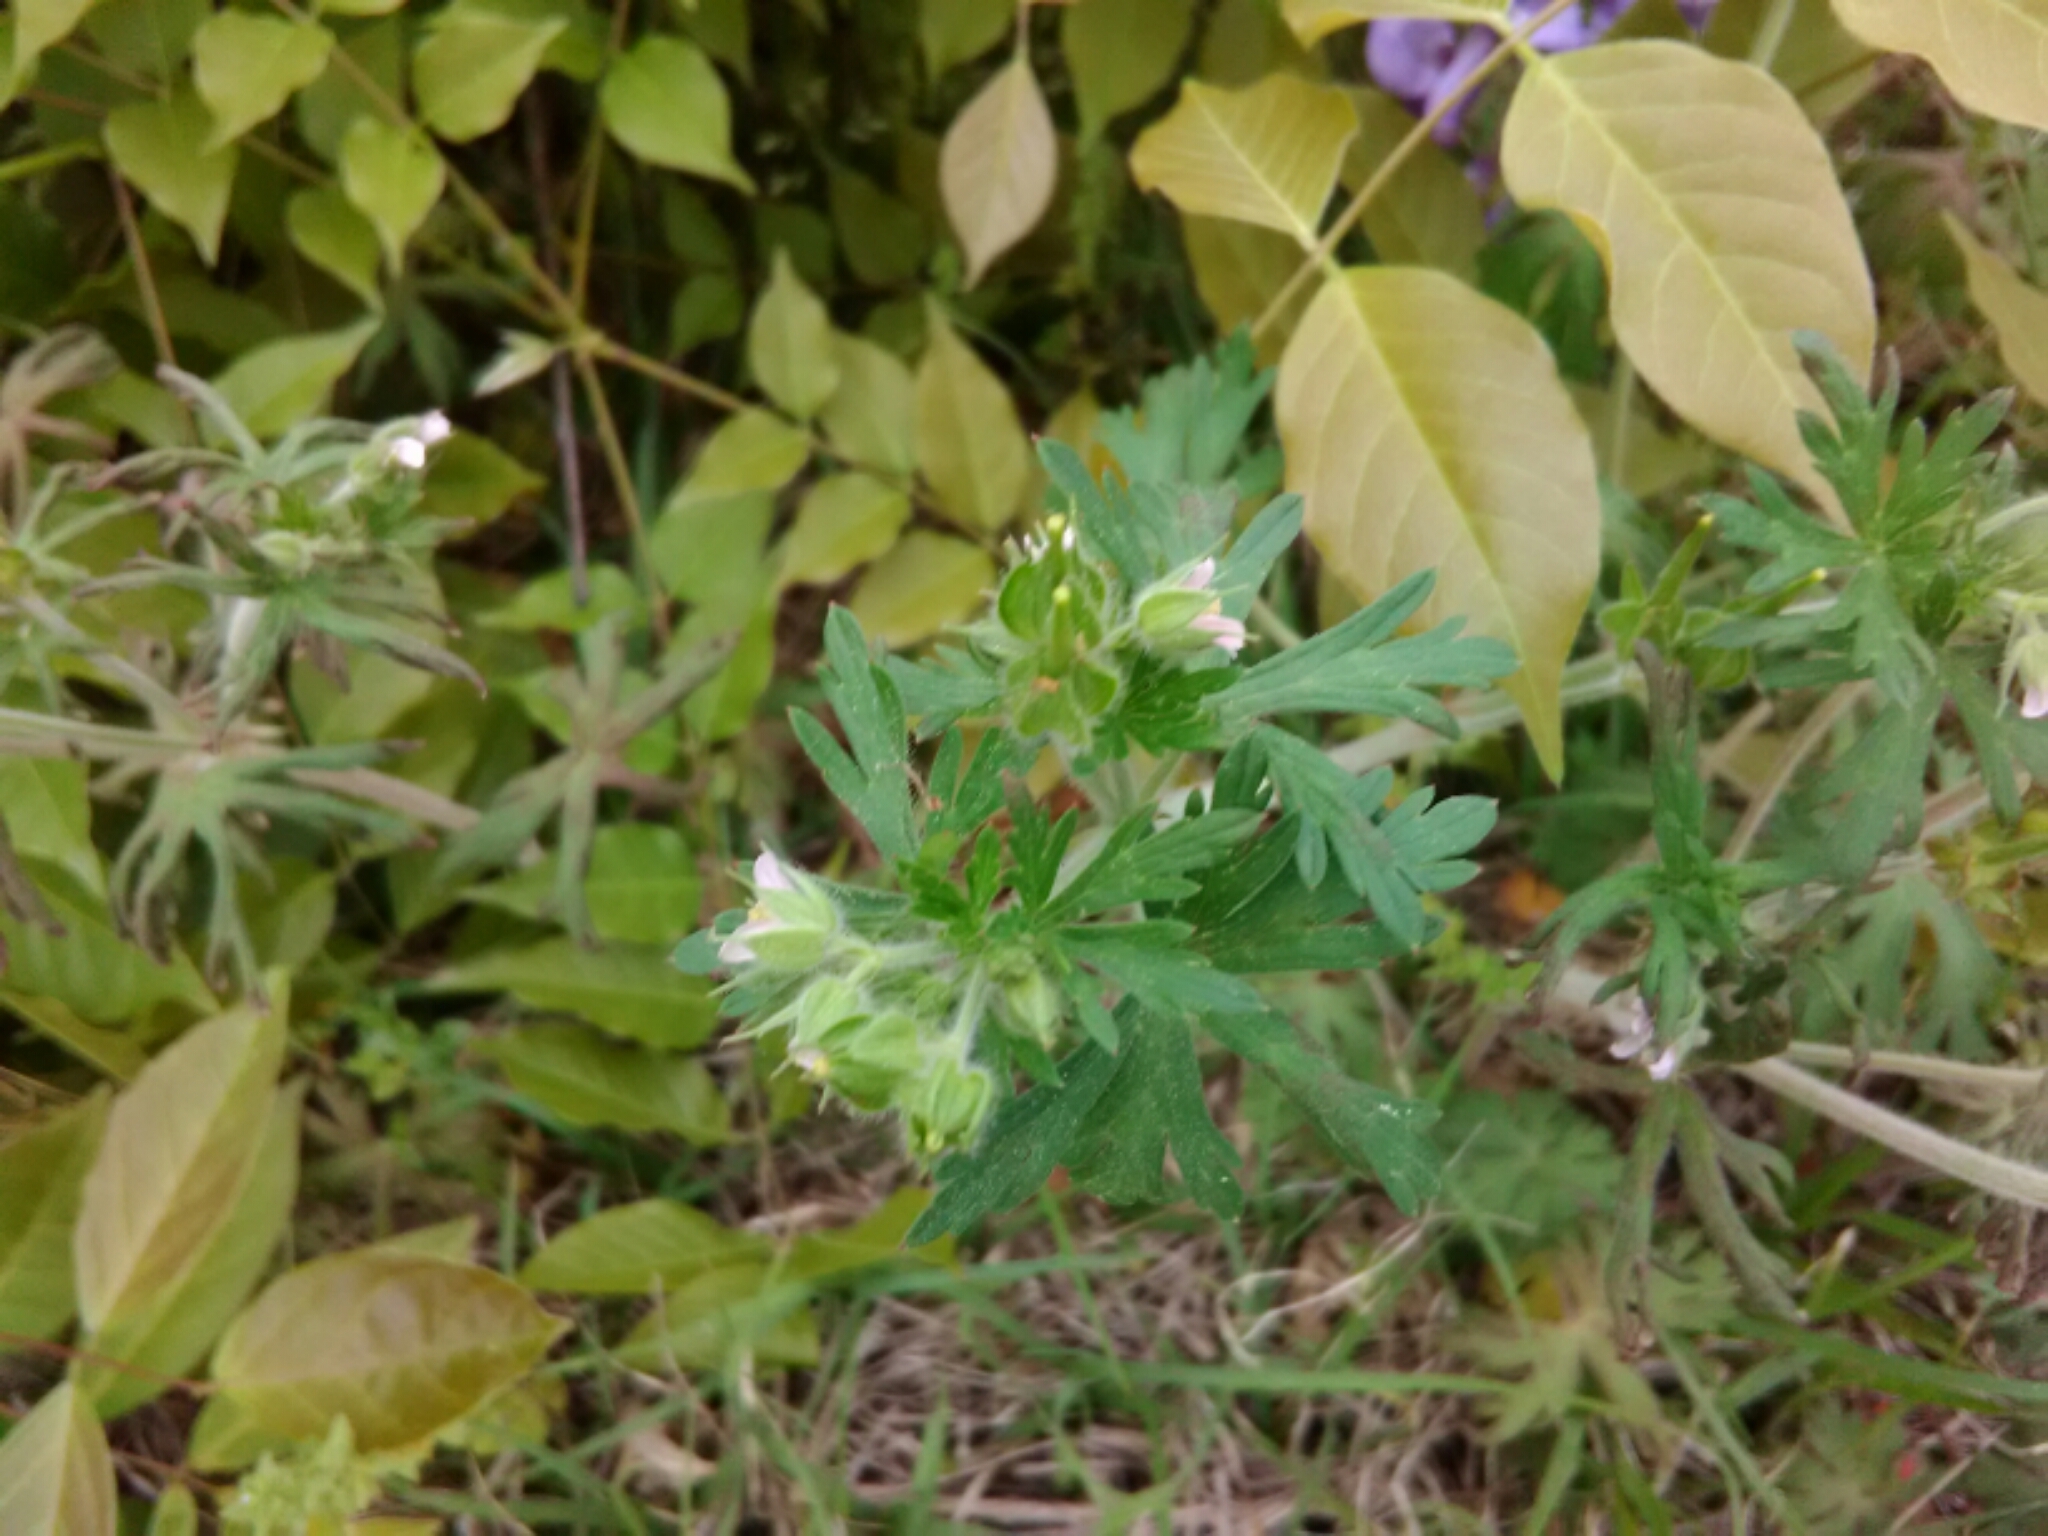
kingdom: Plantae
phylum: Tracheophyta
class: Magnoliopsida
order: Geraniales
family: Geraniaceae
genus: Geranium
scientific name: Geranium carolinianum
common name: Carolina crane's-bill
